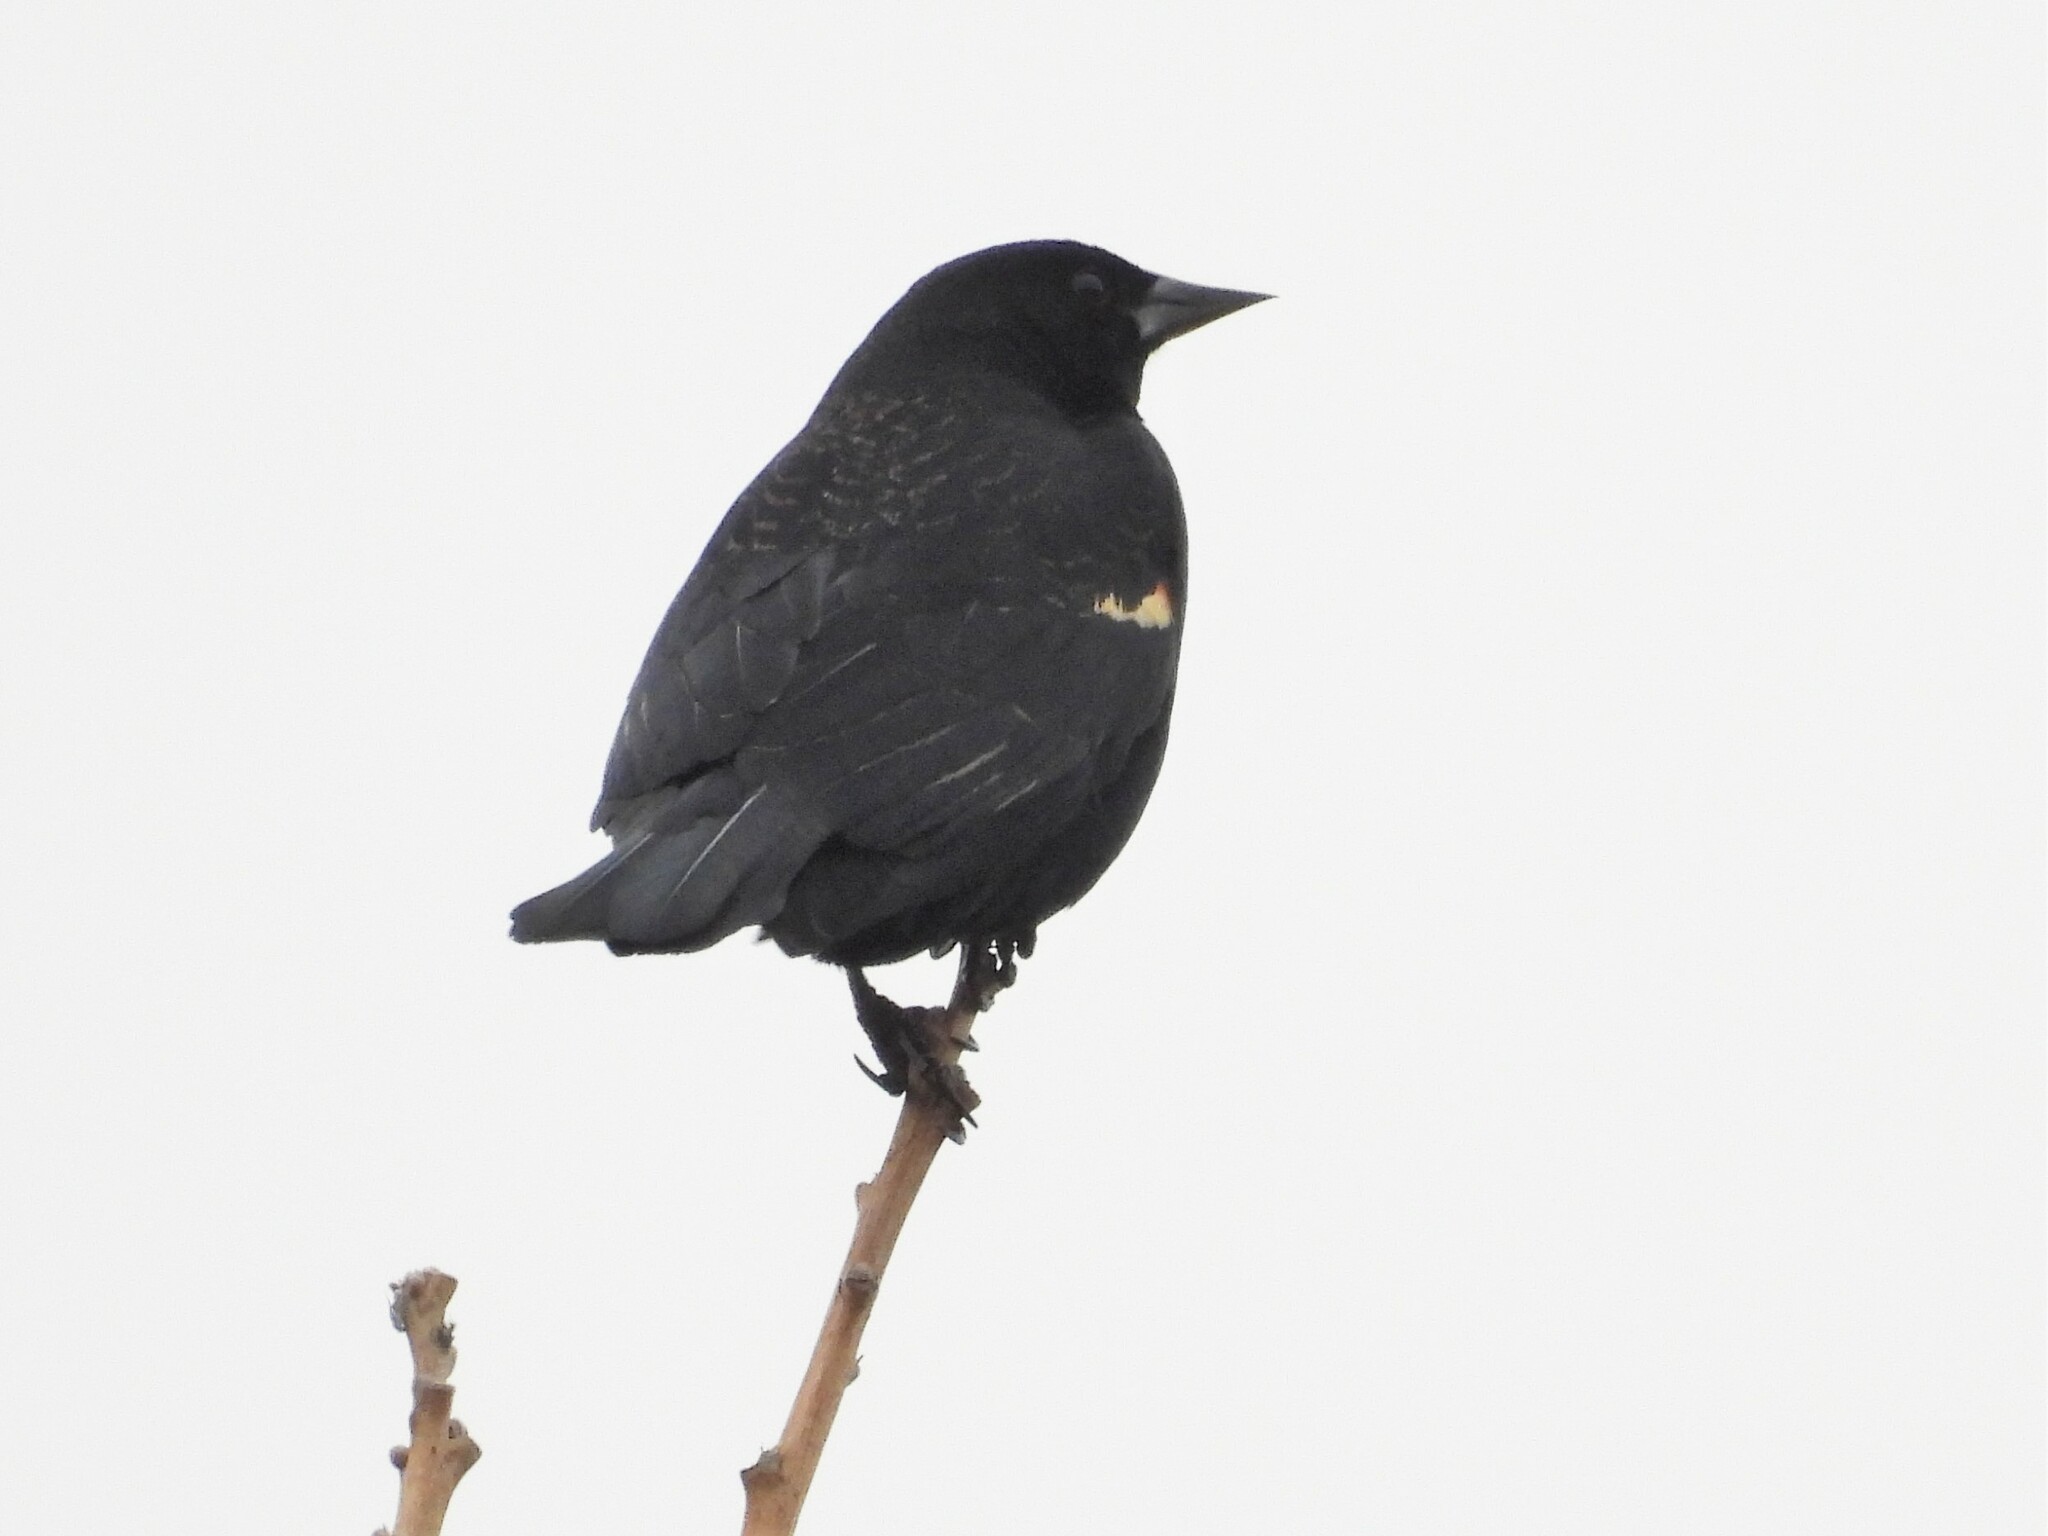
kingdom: Animalia
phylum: Chordata
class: Aves
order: Passeriformes
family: Icteridae
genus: Agelaius
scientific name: Agelaius phoeniceus
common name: Red-winged blackbird
